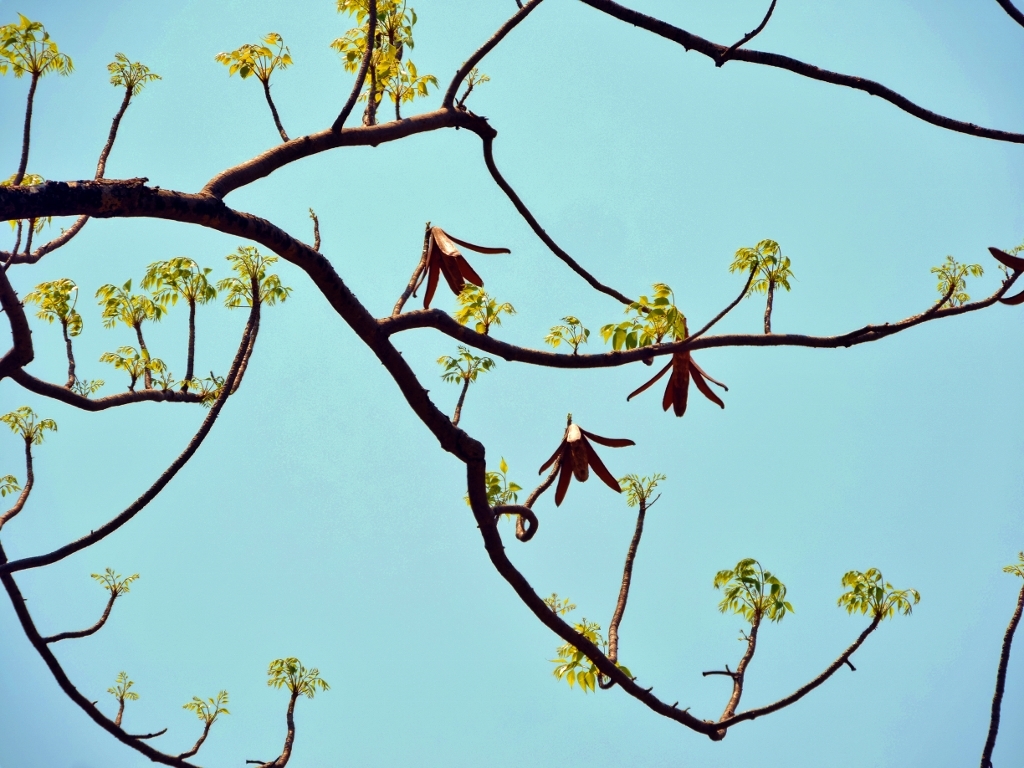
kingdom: Plantae
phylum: Tracheophyta
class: Magnoliopsida
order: Sapindales
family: Meliaceae
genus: Entandrophragma
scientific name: Entandrophragma caudatum
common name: Mountain-mahogany
